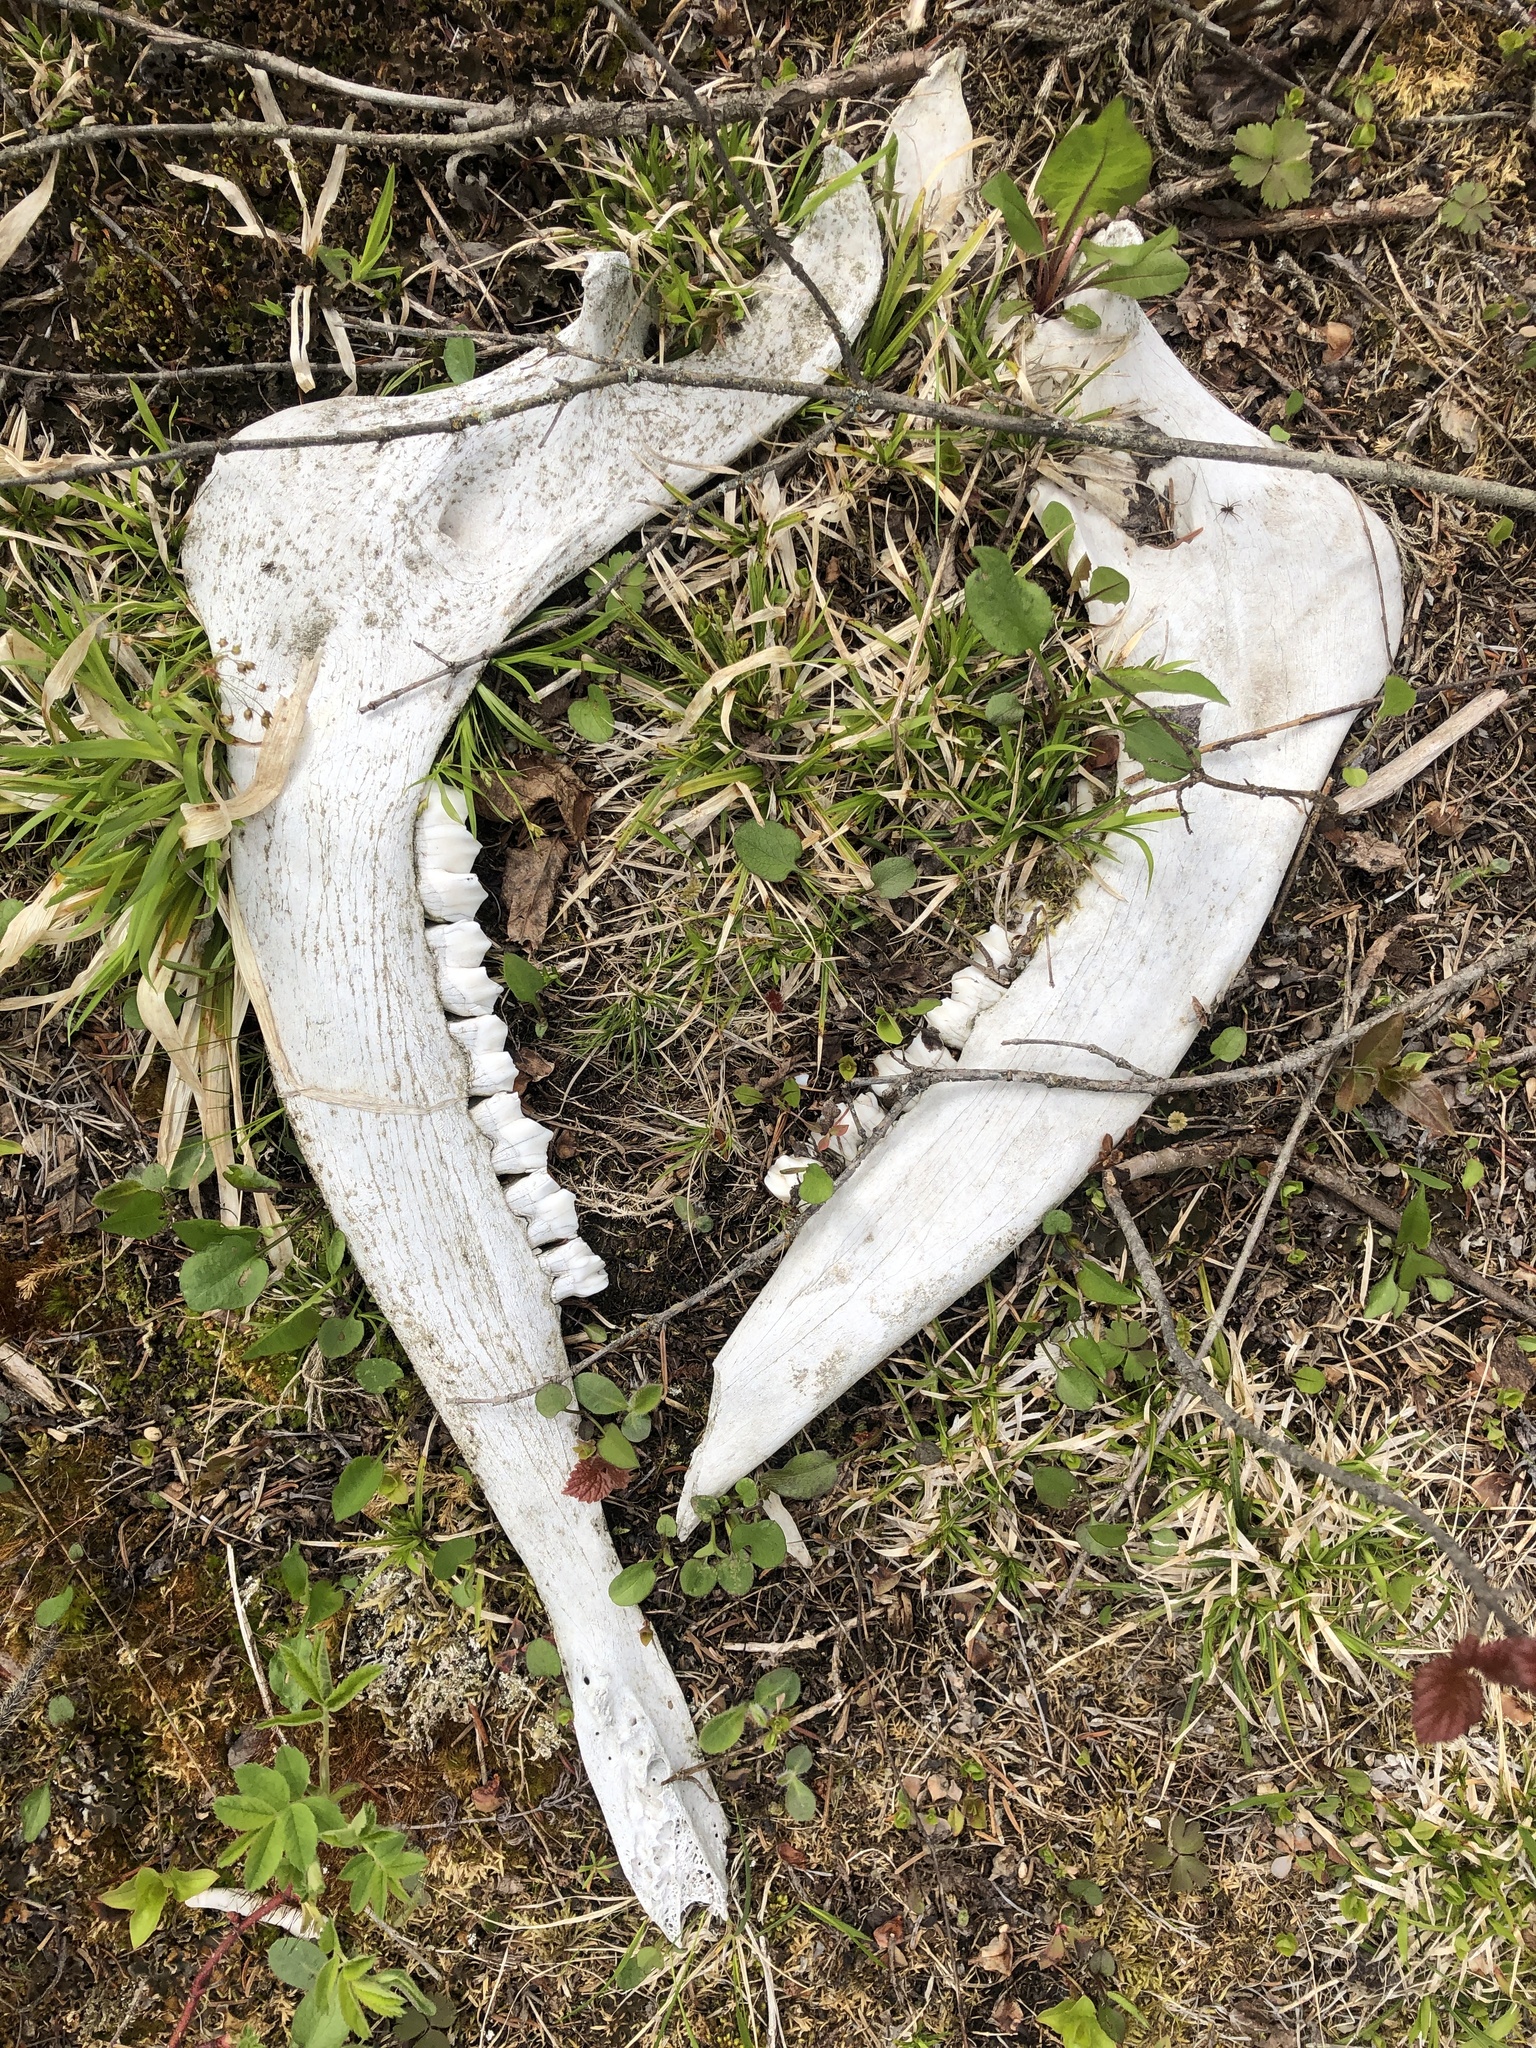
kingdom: Animalia
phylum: Chordata
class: Mammalia
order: Artiodactyla
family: Cervidae
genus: Alces
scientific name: Alces alces
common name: Moose
